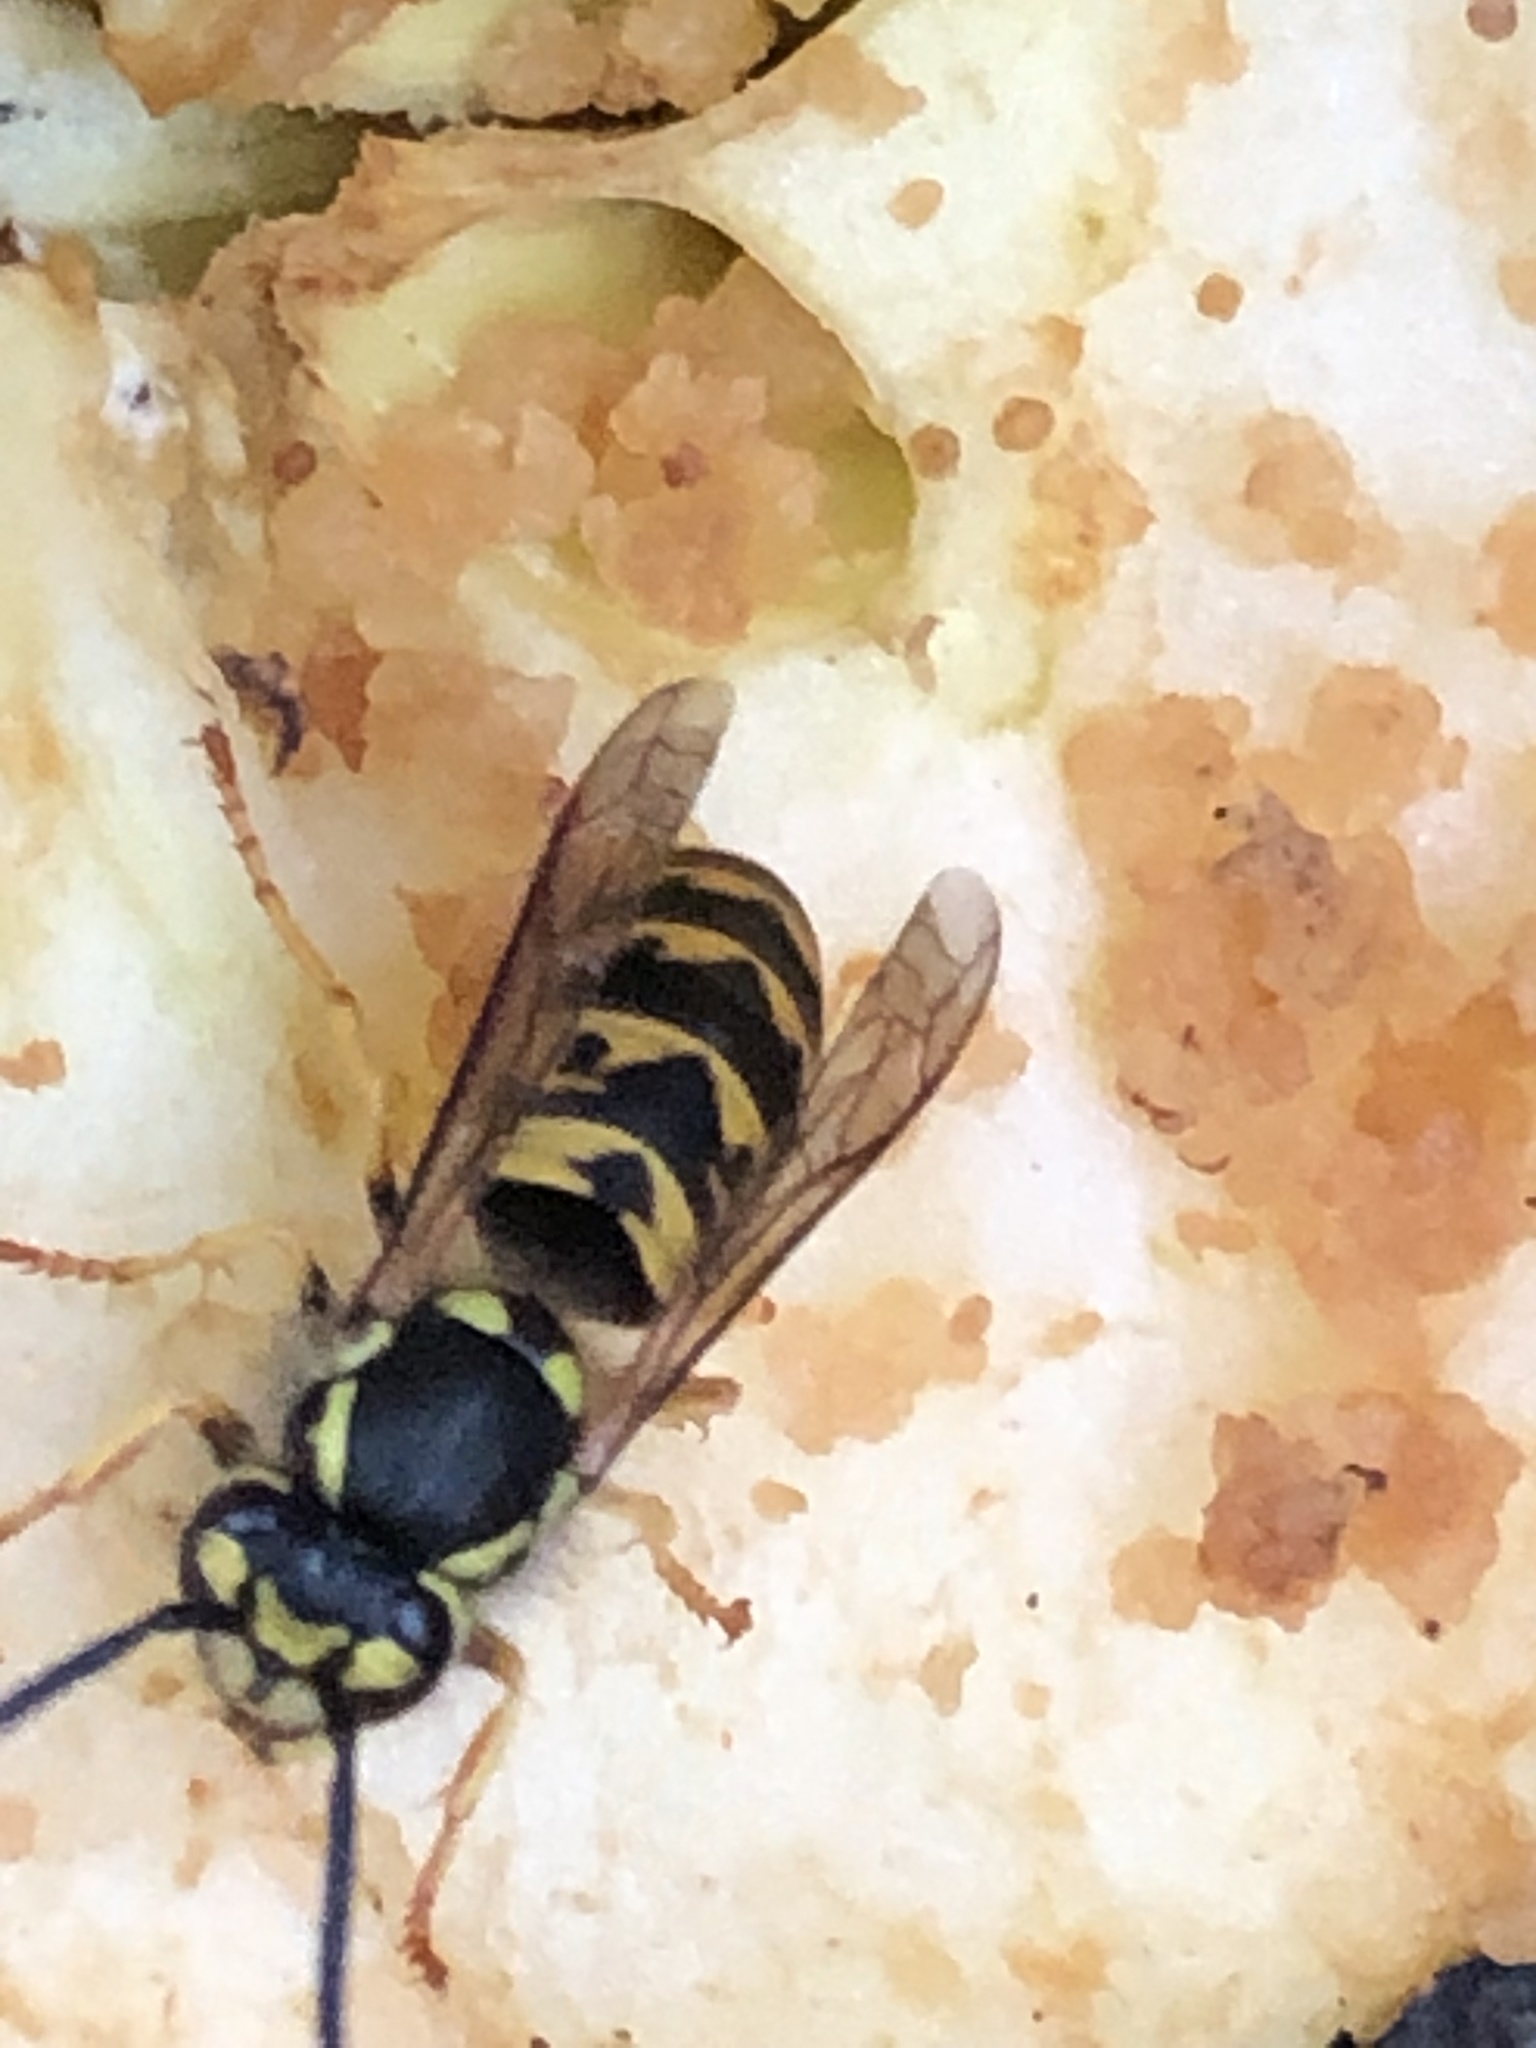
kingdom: Animalia
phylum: Arthropoda
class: Insecta
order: Hymenoptera
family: Vespidae
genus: Vespula
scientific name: Vespula germanica
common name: German wasp
